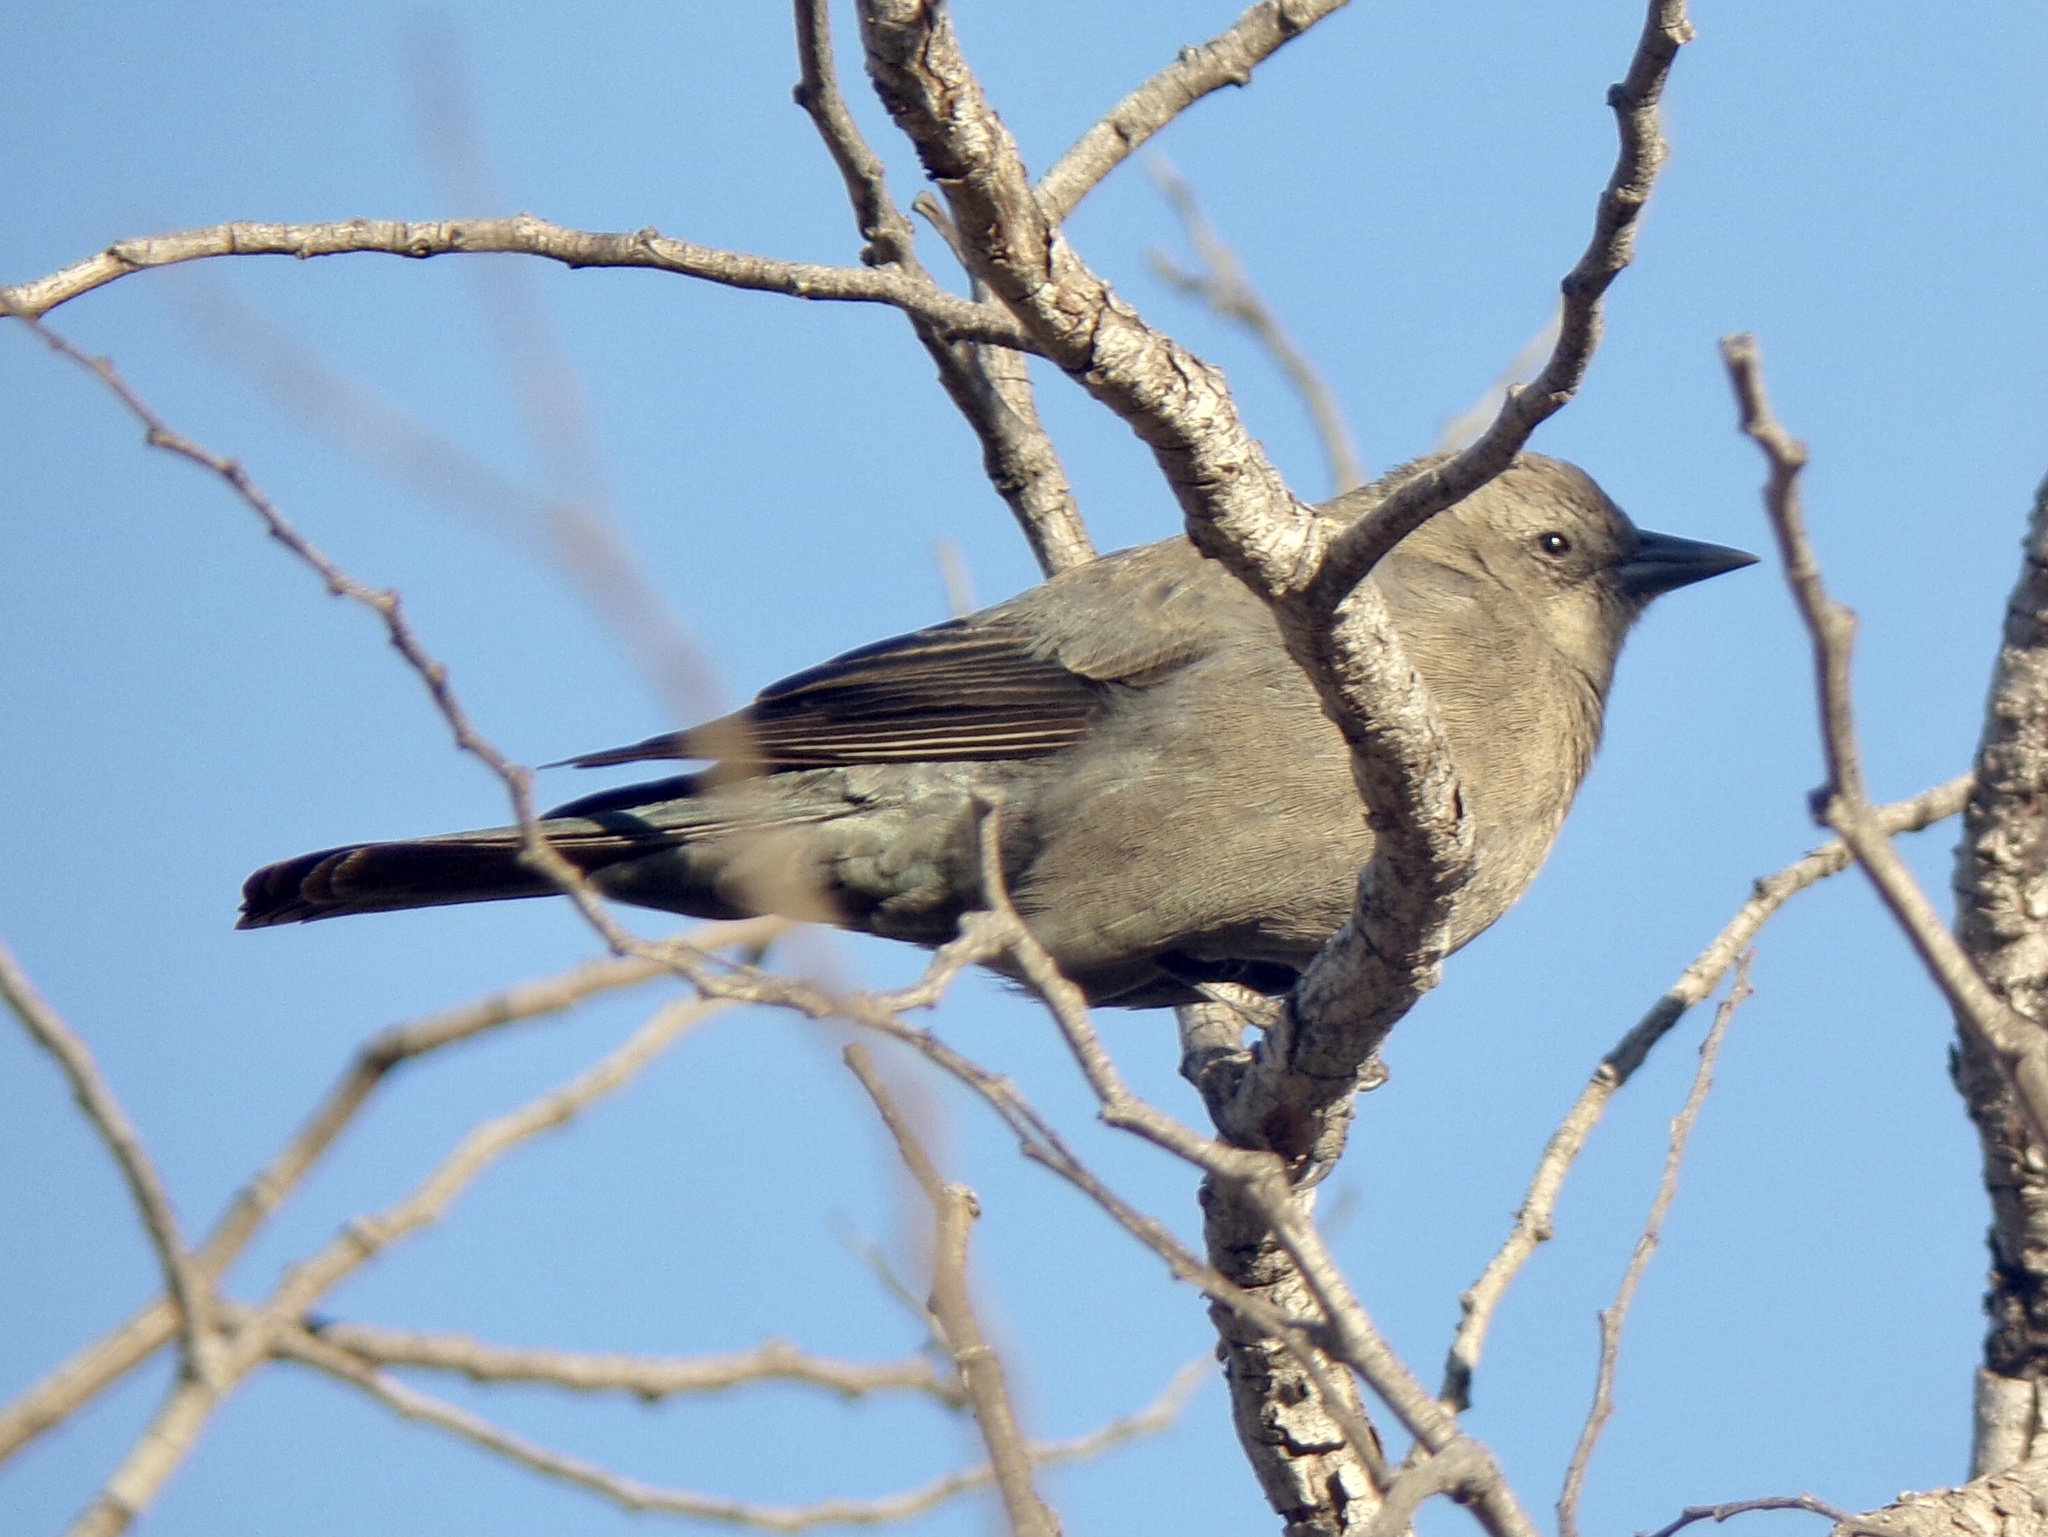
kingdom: Animalia
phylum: Chordata
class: Aves
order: Passeriformes
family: Icteridae
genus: Euphagus
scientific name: Euphagus cyanocephalus
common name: Brewer's blackbird
